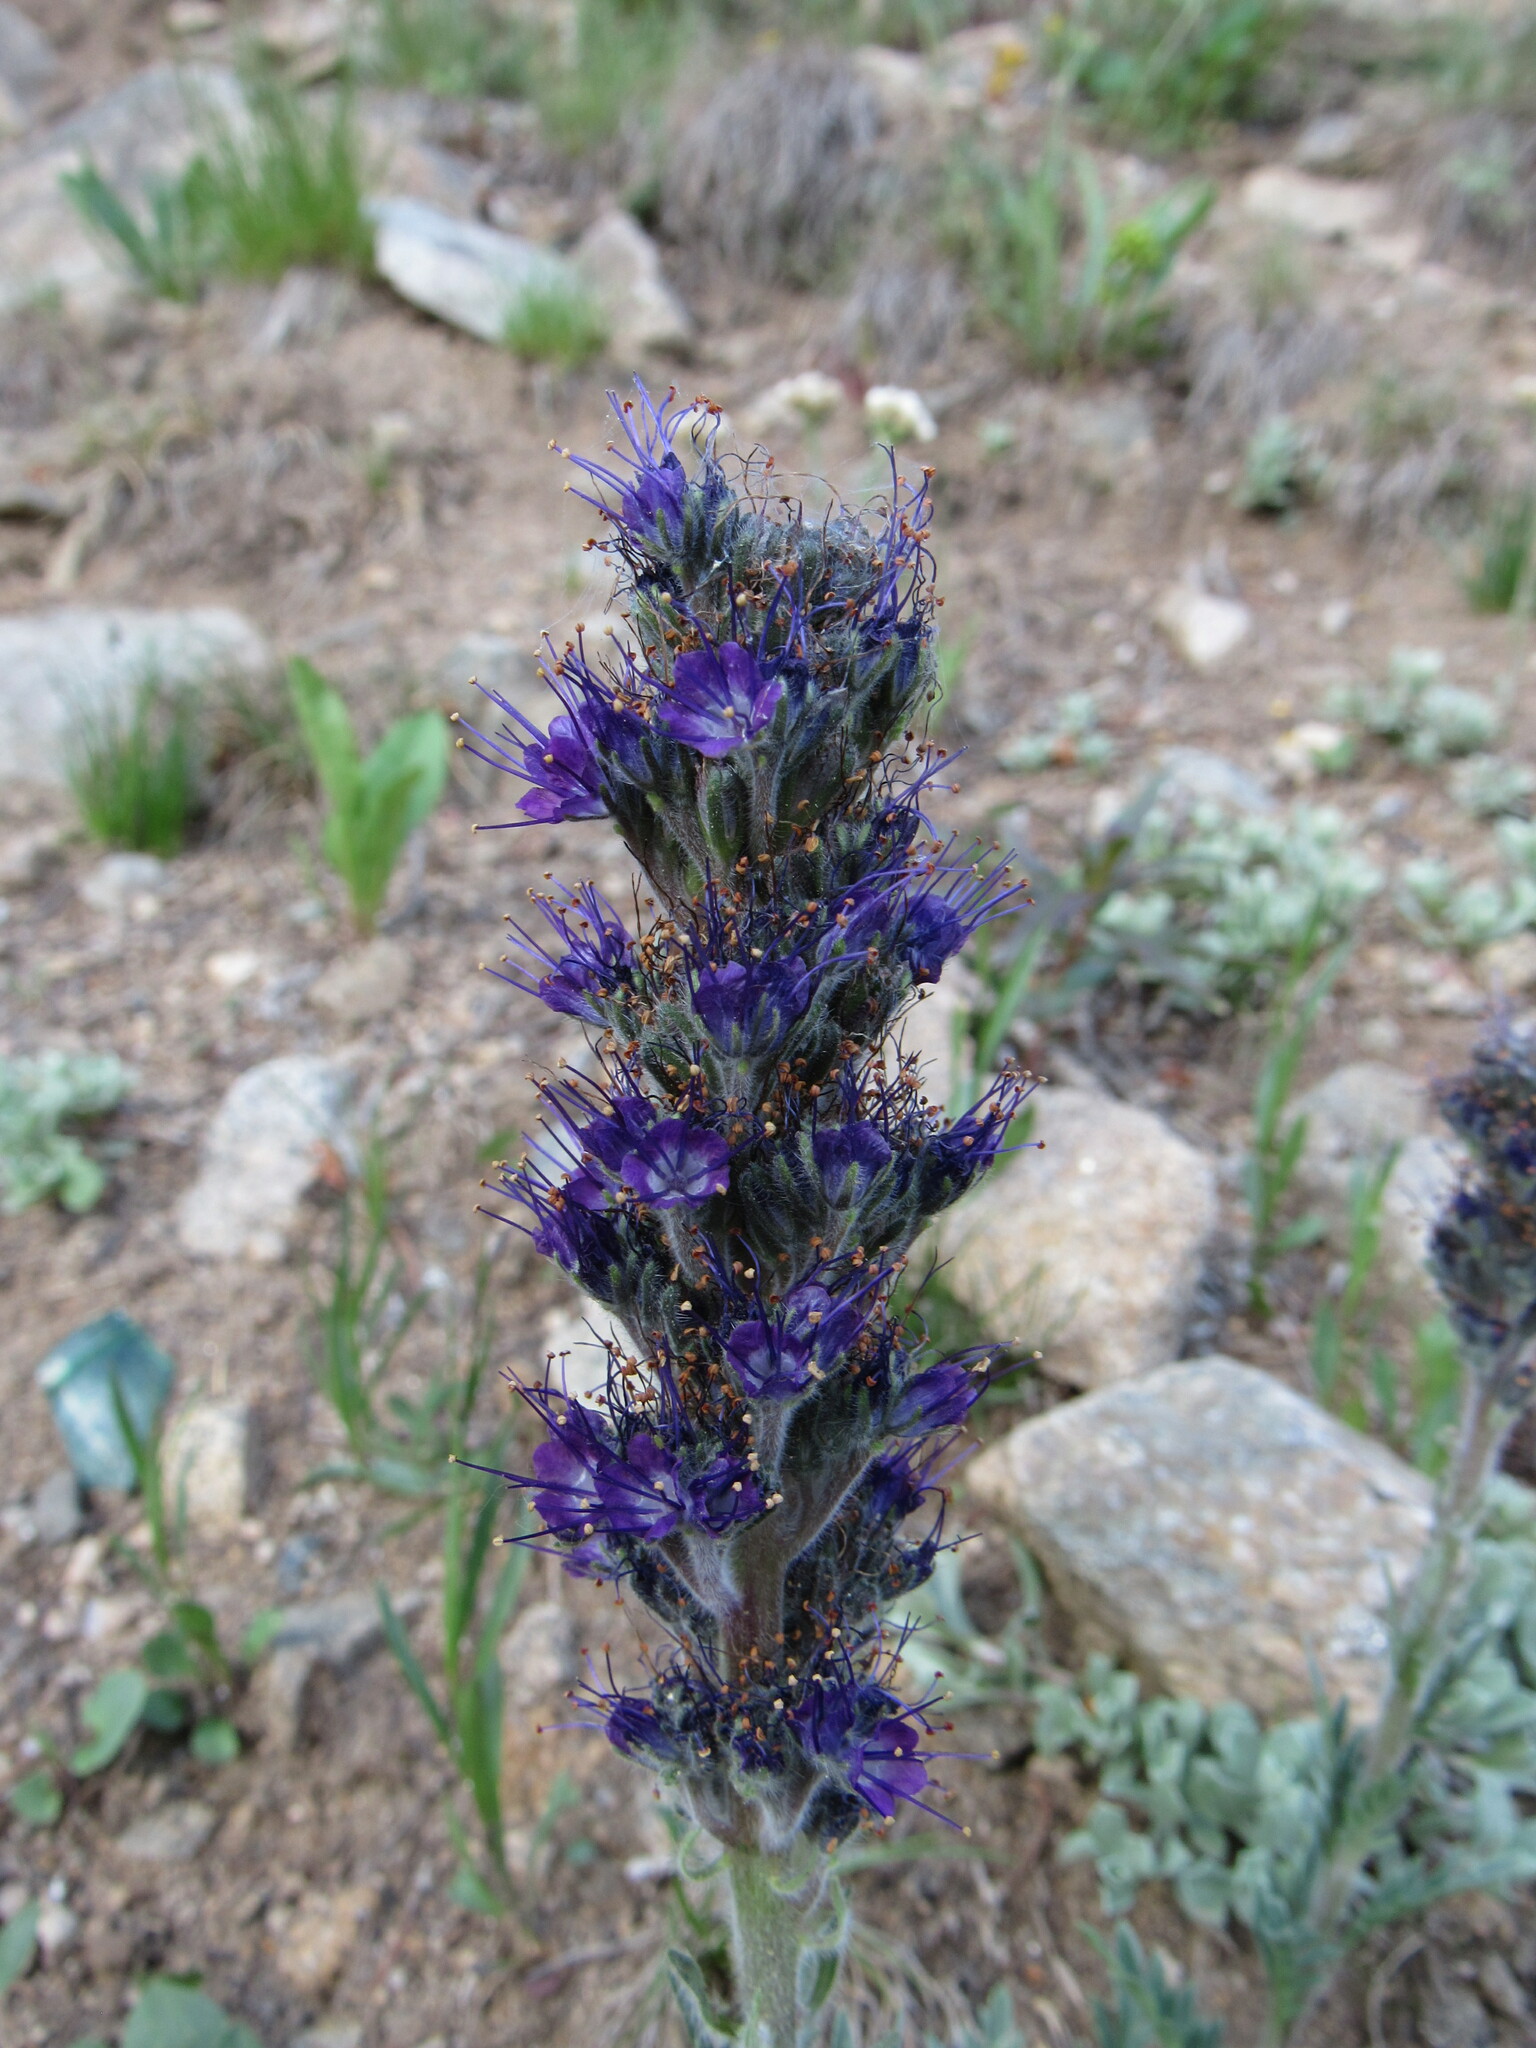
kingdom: Plantae
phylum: Tracheophyta
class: Magnoliopsida
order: Boraginales
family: Hydrophyllaceae
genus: Phacelia
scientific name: Phacelia sericea
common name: Silky phacelia
